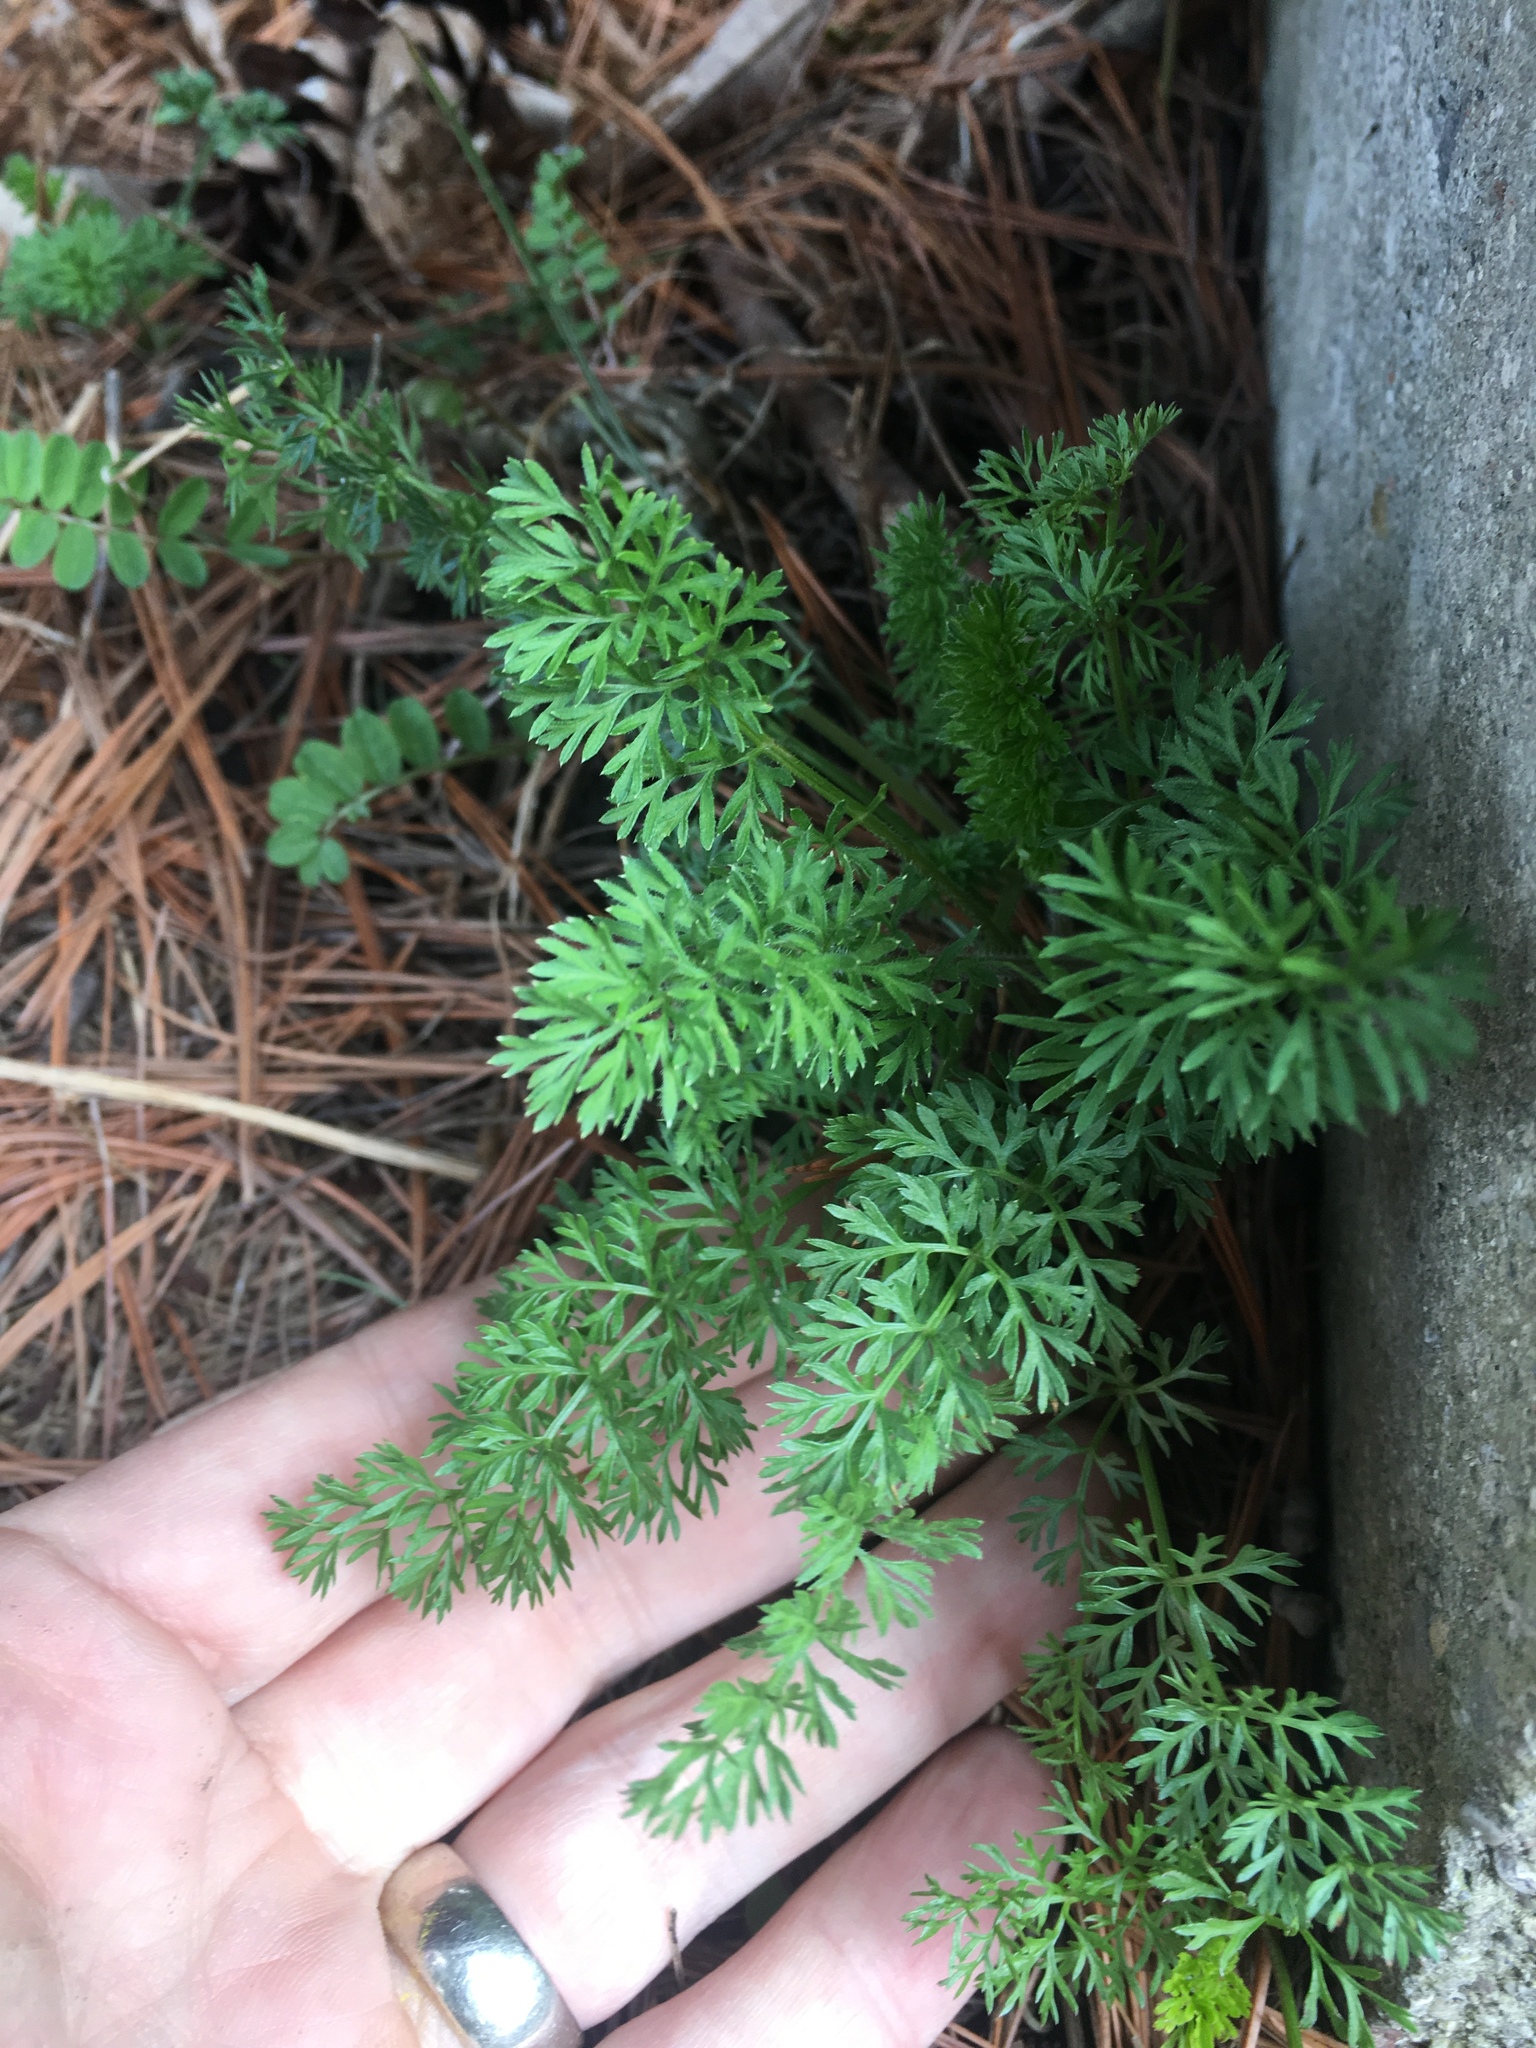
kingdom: Plantae
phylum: Tracheophyta
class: Magnoliopsida
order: Apiales
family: Apiaceae
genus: Daucus
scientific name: Daucus carota
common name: Wild carrot
